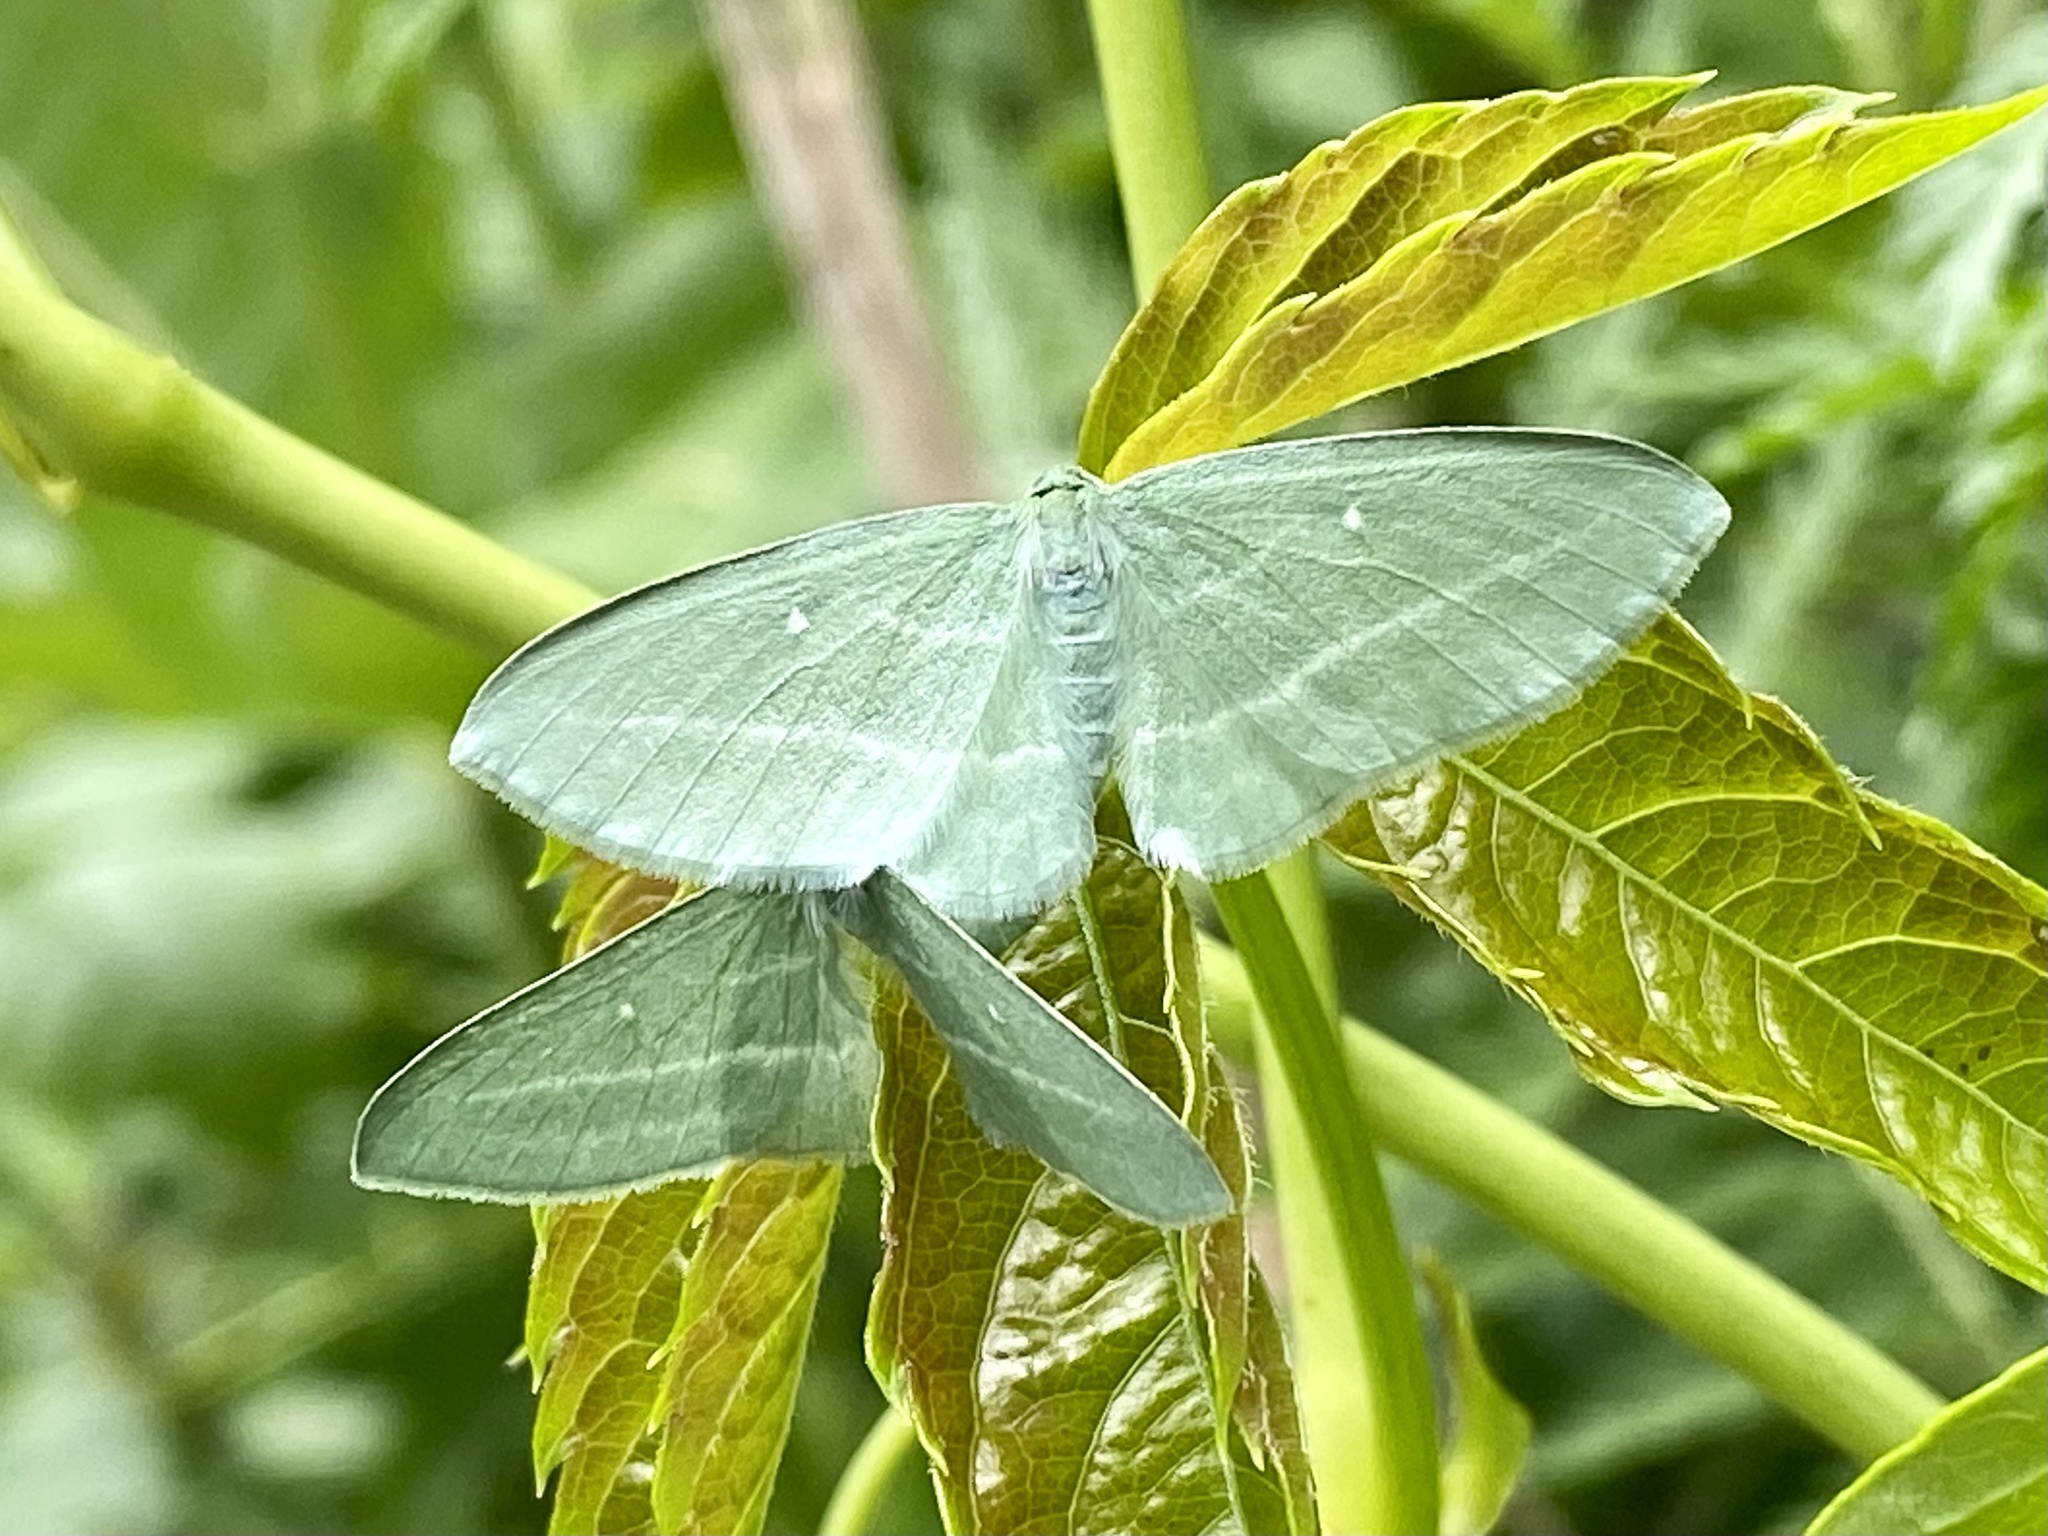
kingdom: Animalia
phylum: Arthropoda
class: Insecta
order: Lepidoptera
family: Geometridae
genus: Dyspteris
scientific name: Dyspteris abortivaria
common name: Bad-wing
